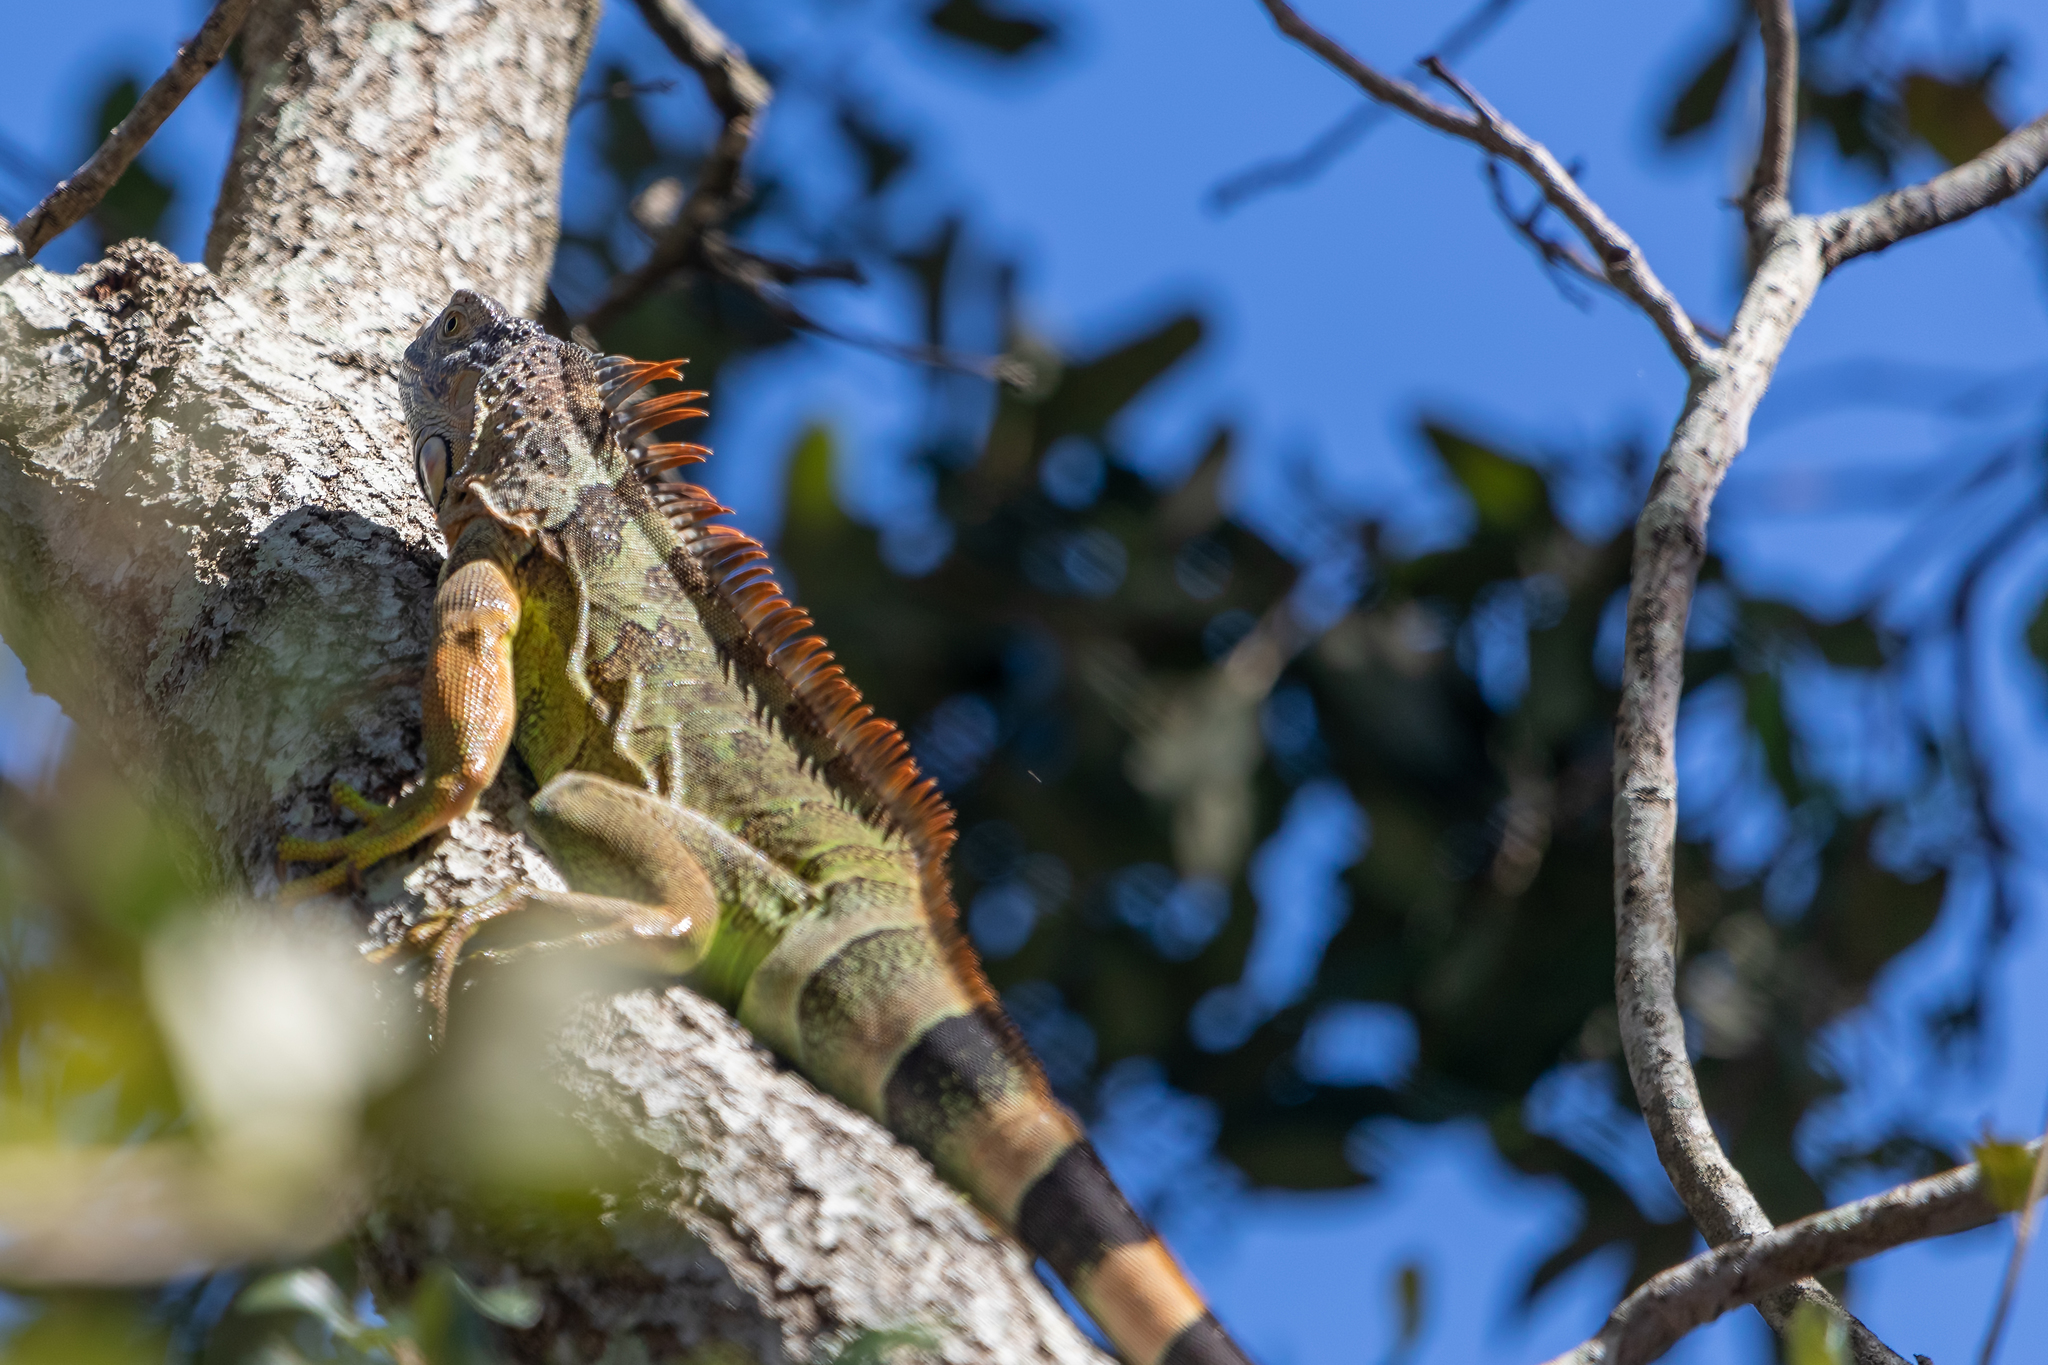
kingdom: Animalia
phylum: Chordata
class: Squamata
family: Iguanidae
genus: Iguana
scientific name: Iguana iguana
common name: Green iguana
